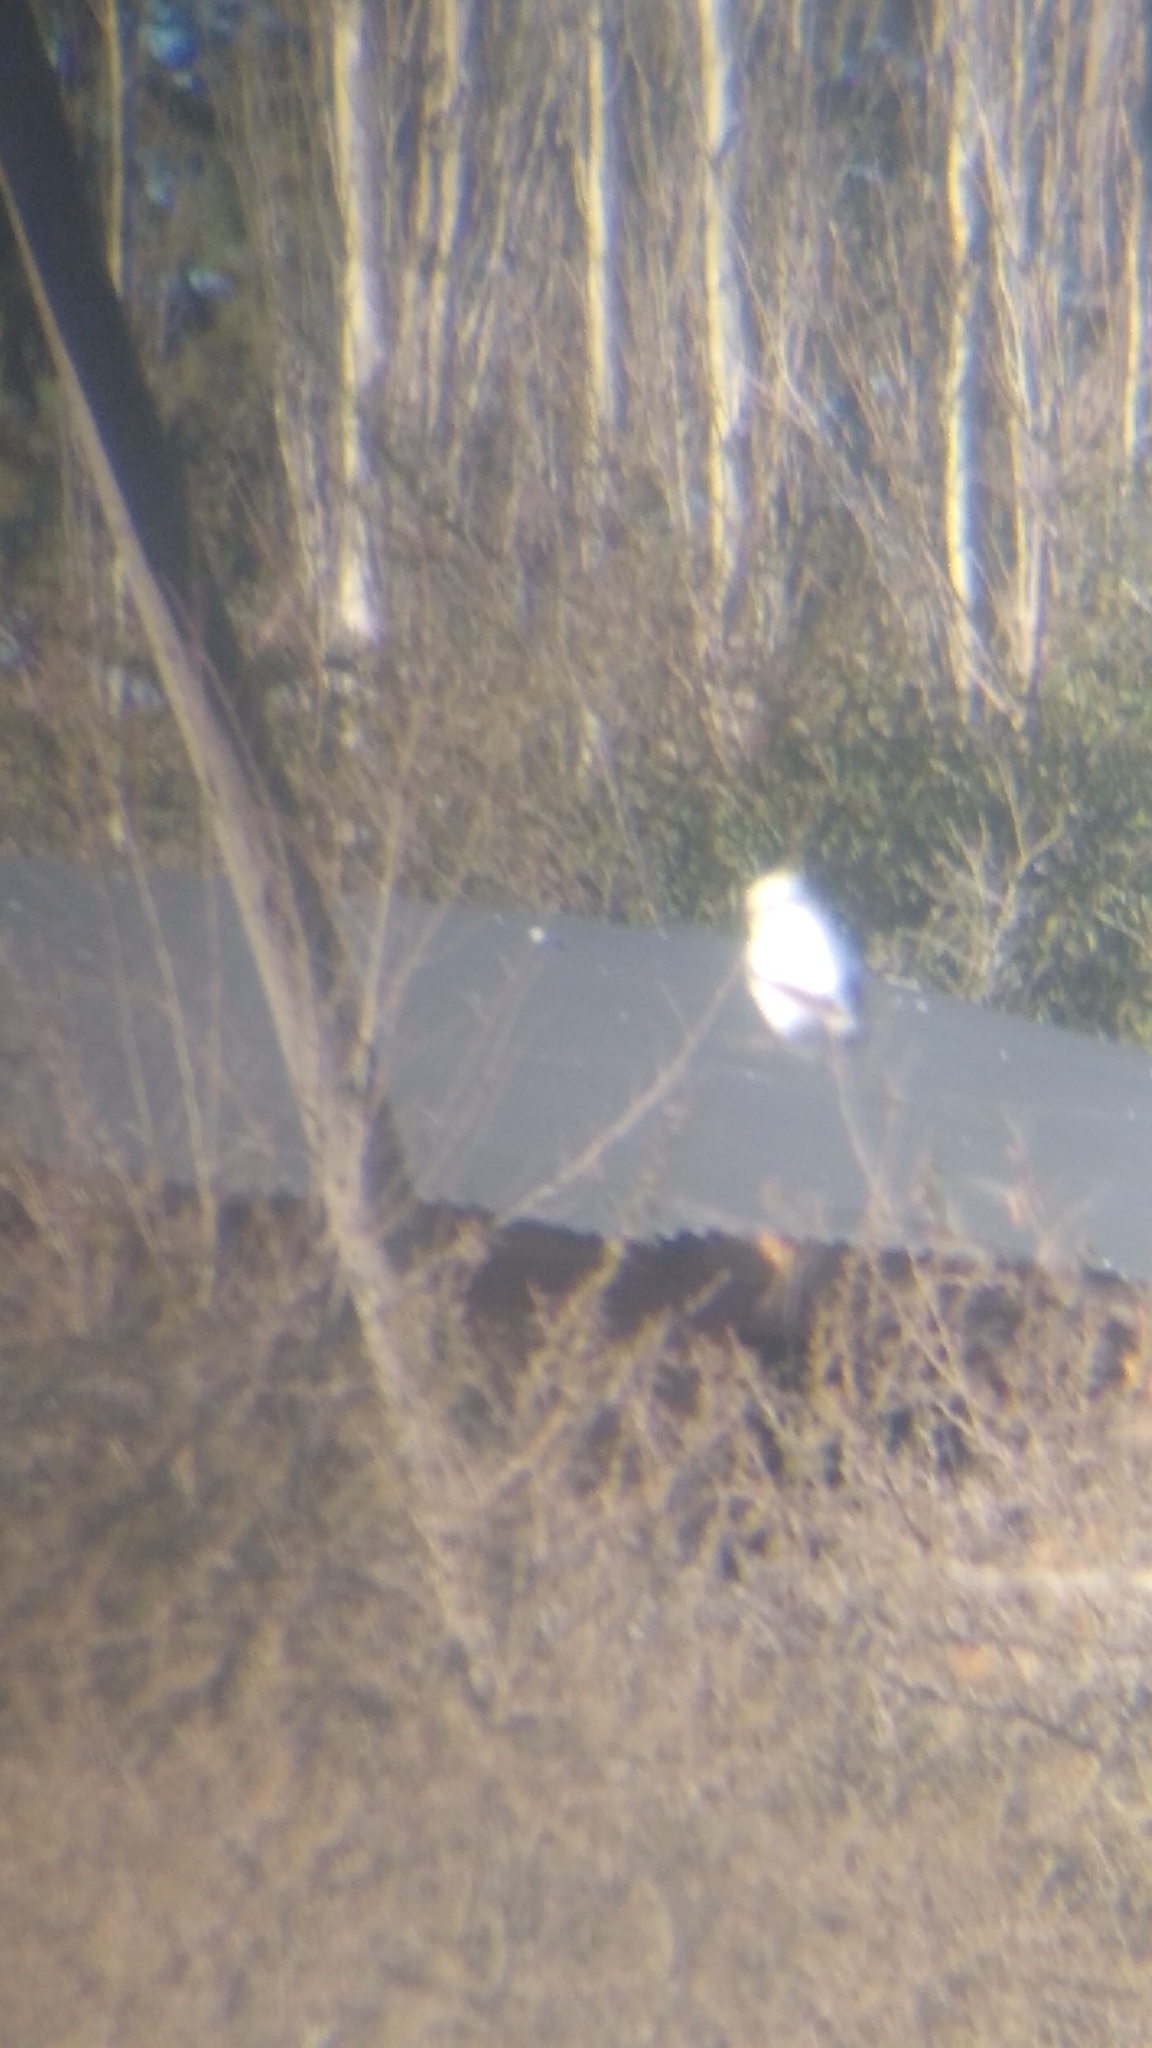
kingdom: Animalia
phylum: Chordata
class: Aves
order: Passeriformes
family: Tyrannidae
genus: Xolmis
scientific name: Xolmis irupero
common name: White monjita
